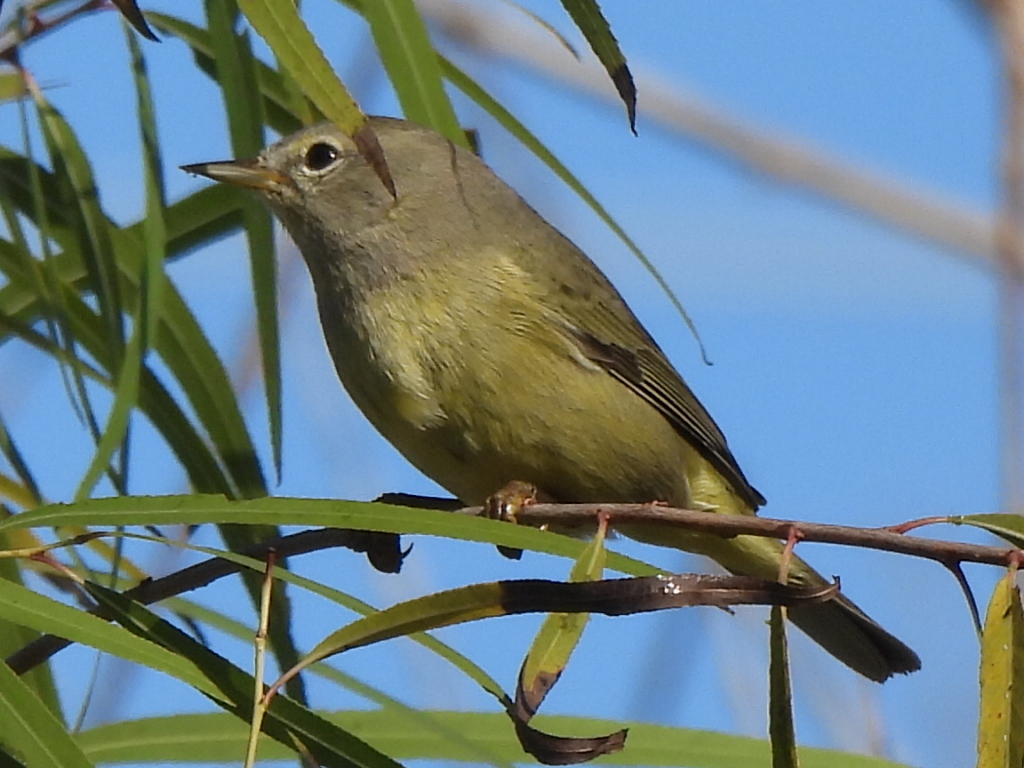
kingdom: Animalia
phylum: Chordata
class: Aves
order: Passeriformes
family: Parulidae
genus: Leiothlypis
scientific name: Leiothlypis celata
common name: Orange-crowned warbler
